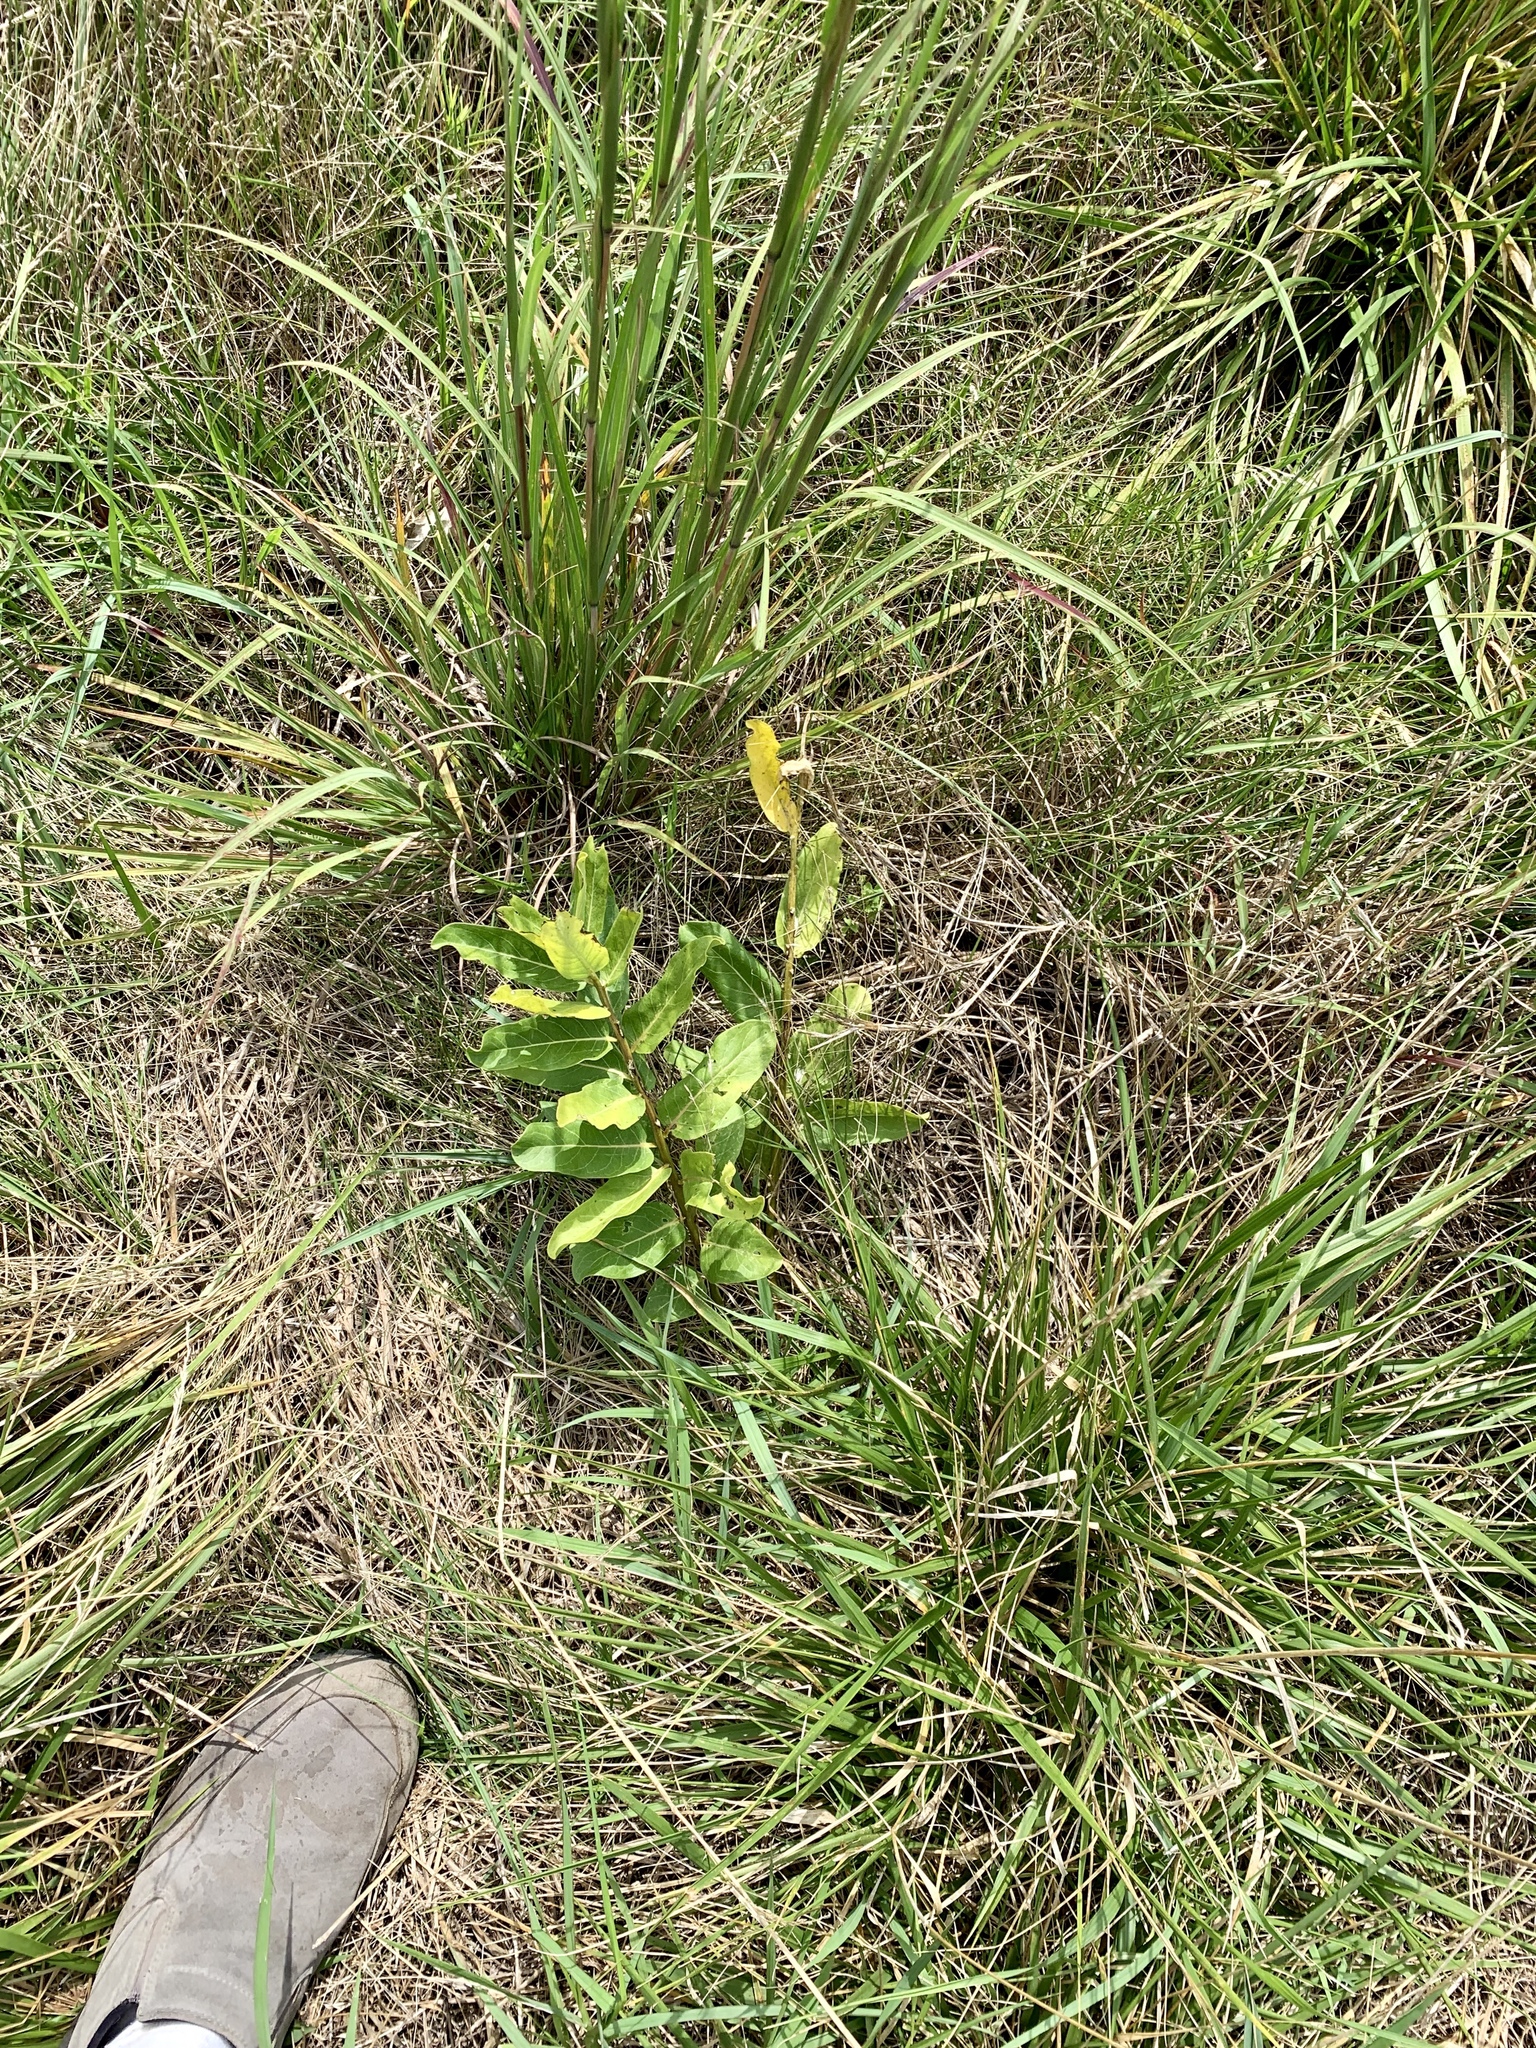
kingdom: Plantae
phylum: Tracheophyta
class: Magnoliopsida
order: Gentianales
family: Apocynaceae
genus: Asclepias
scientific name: Asclepias syriaca
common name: Common milkweed
